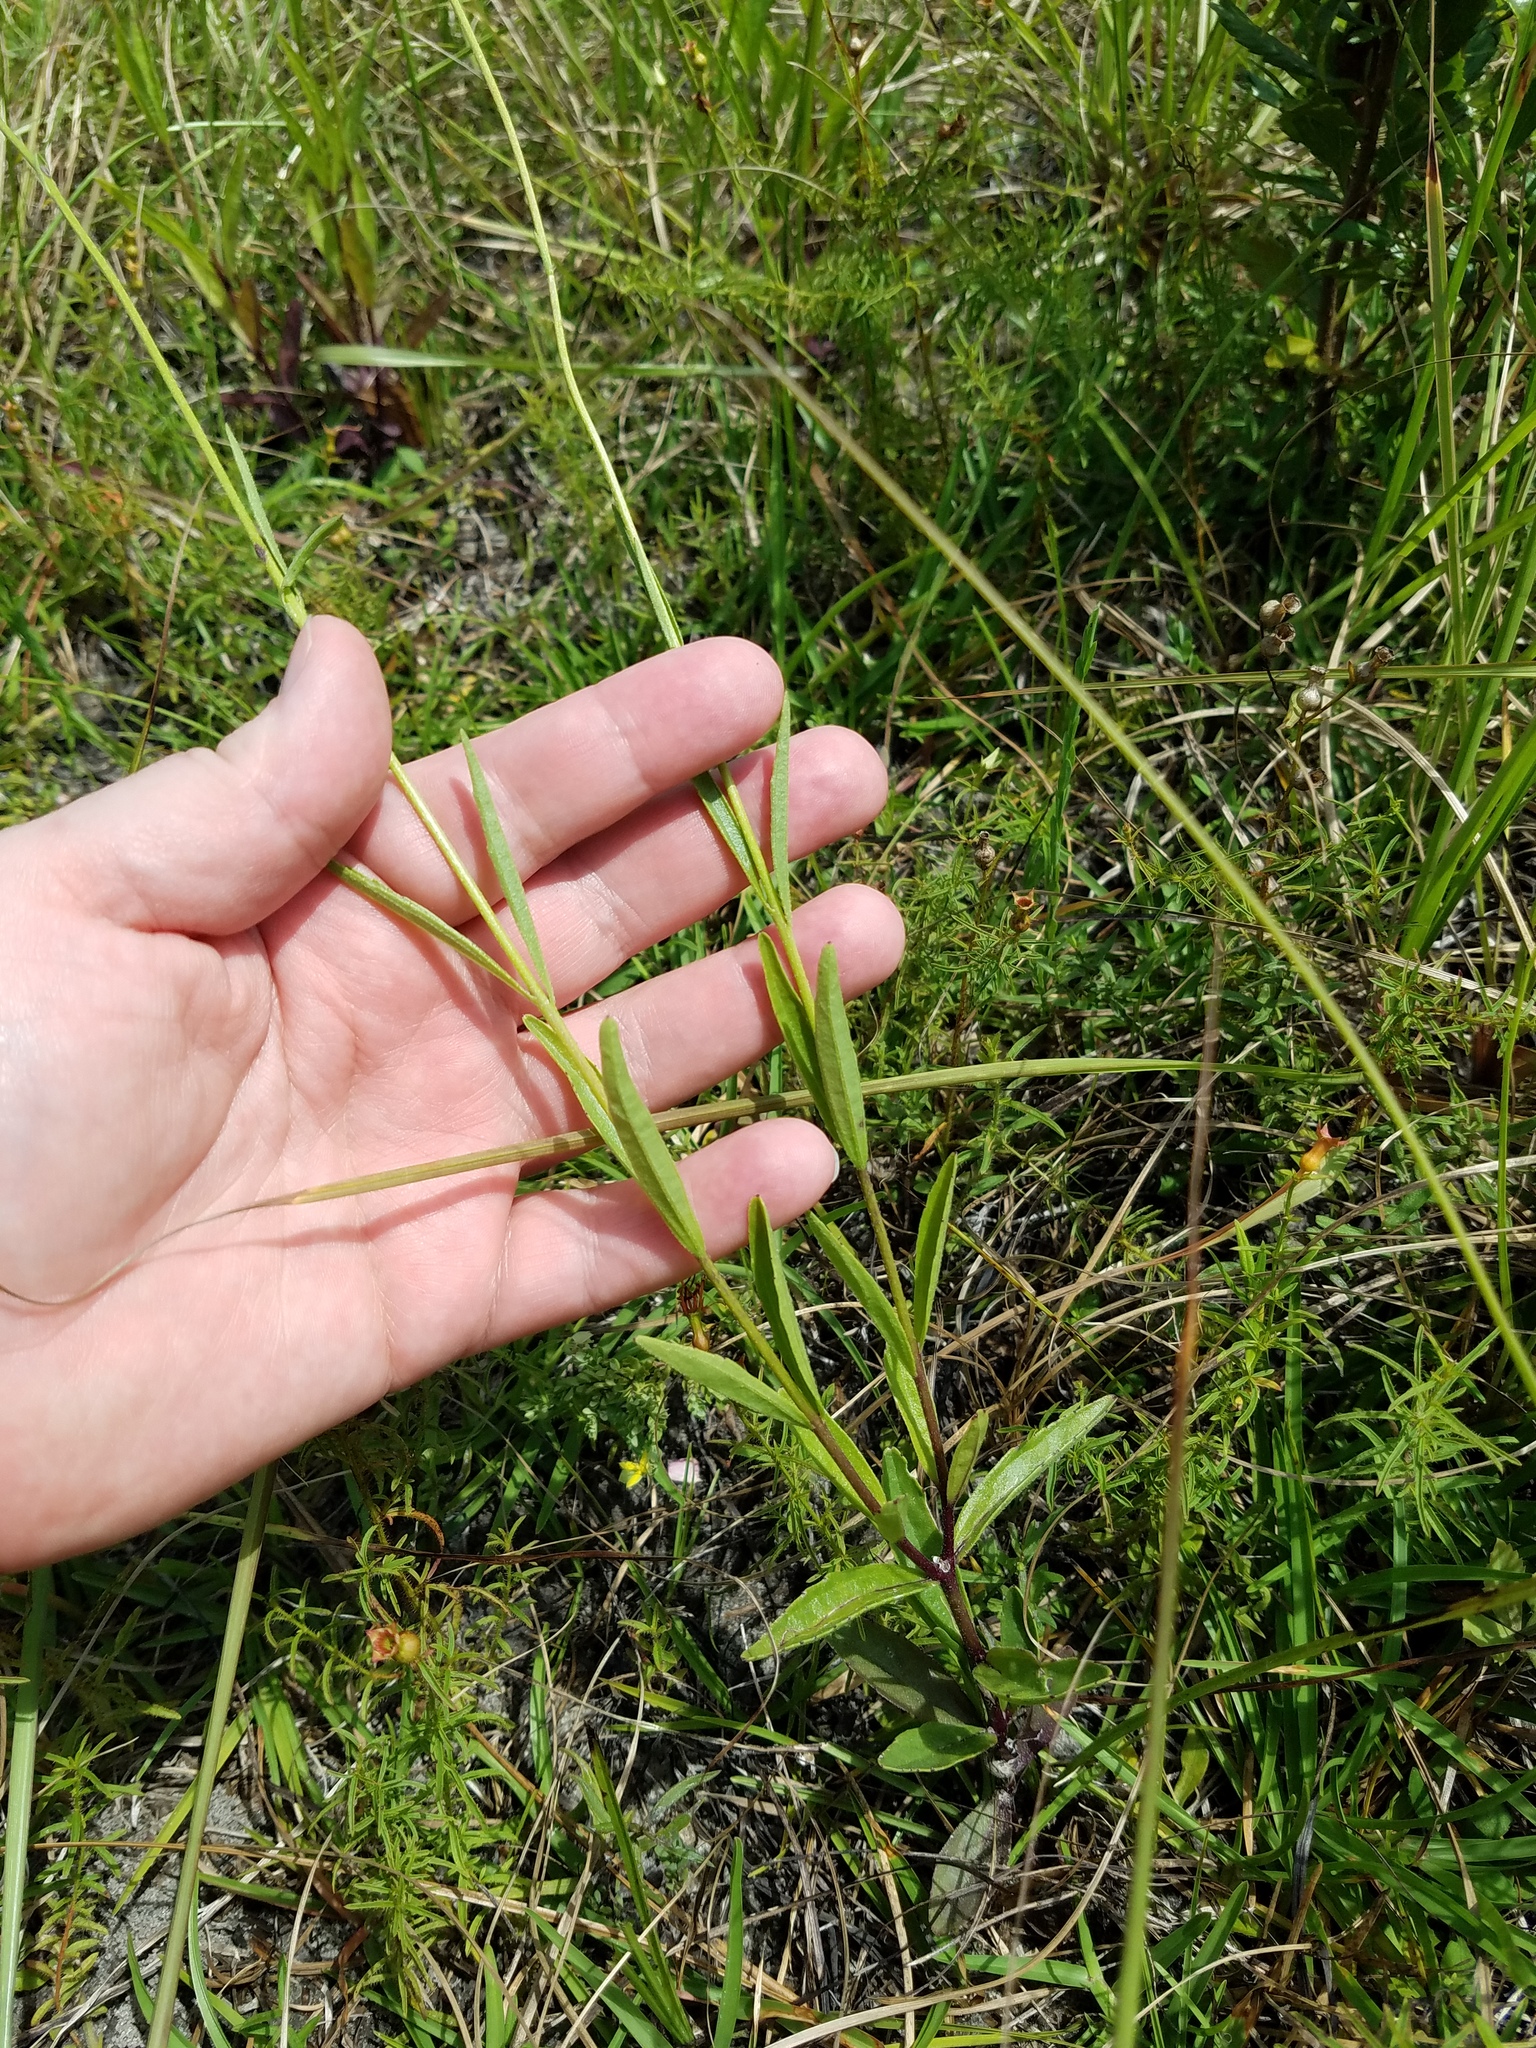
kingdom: Plantae
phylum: Tracheophyta
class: Magnoliopsida
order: Lamiales
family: Orobanchaceae
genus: Buchnera
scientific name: Buchnera floridana
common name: Florida bluehearts
